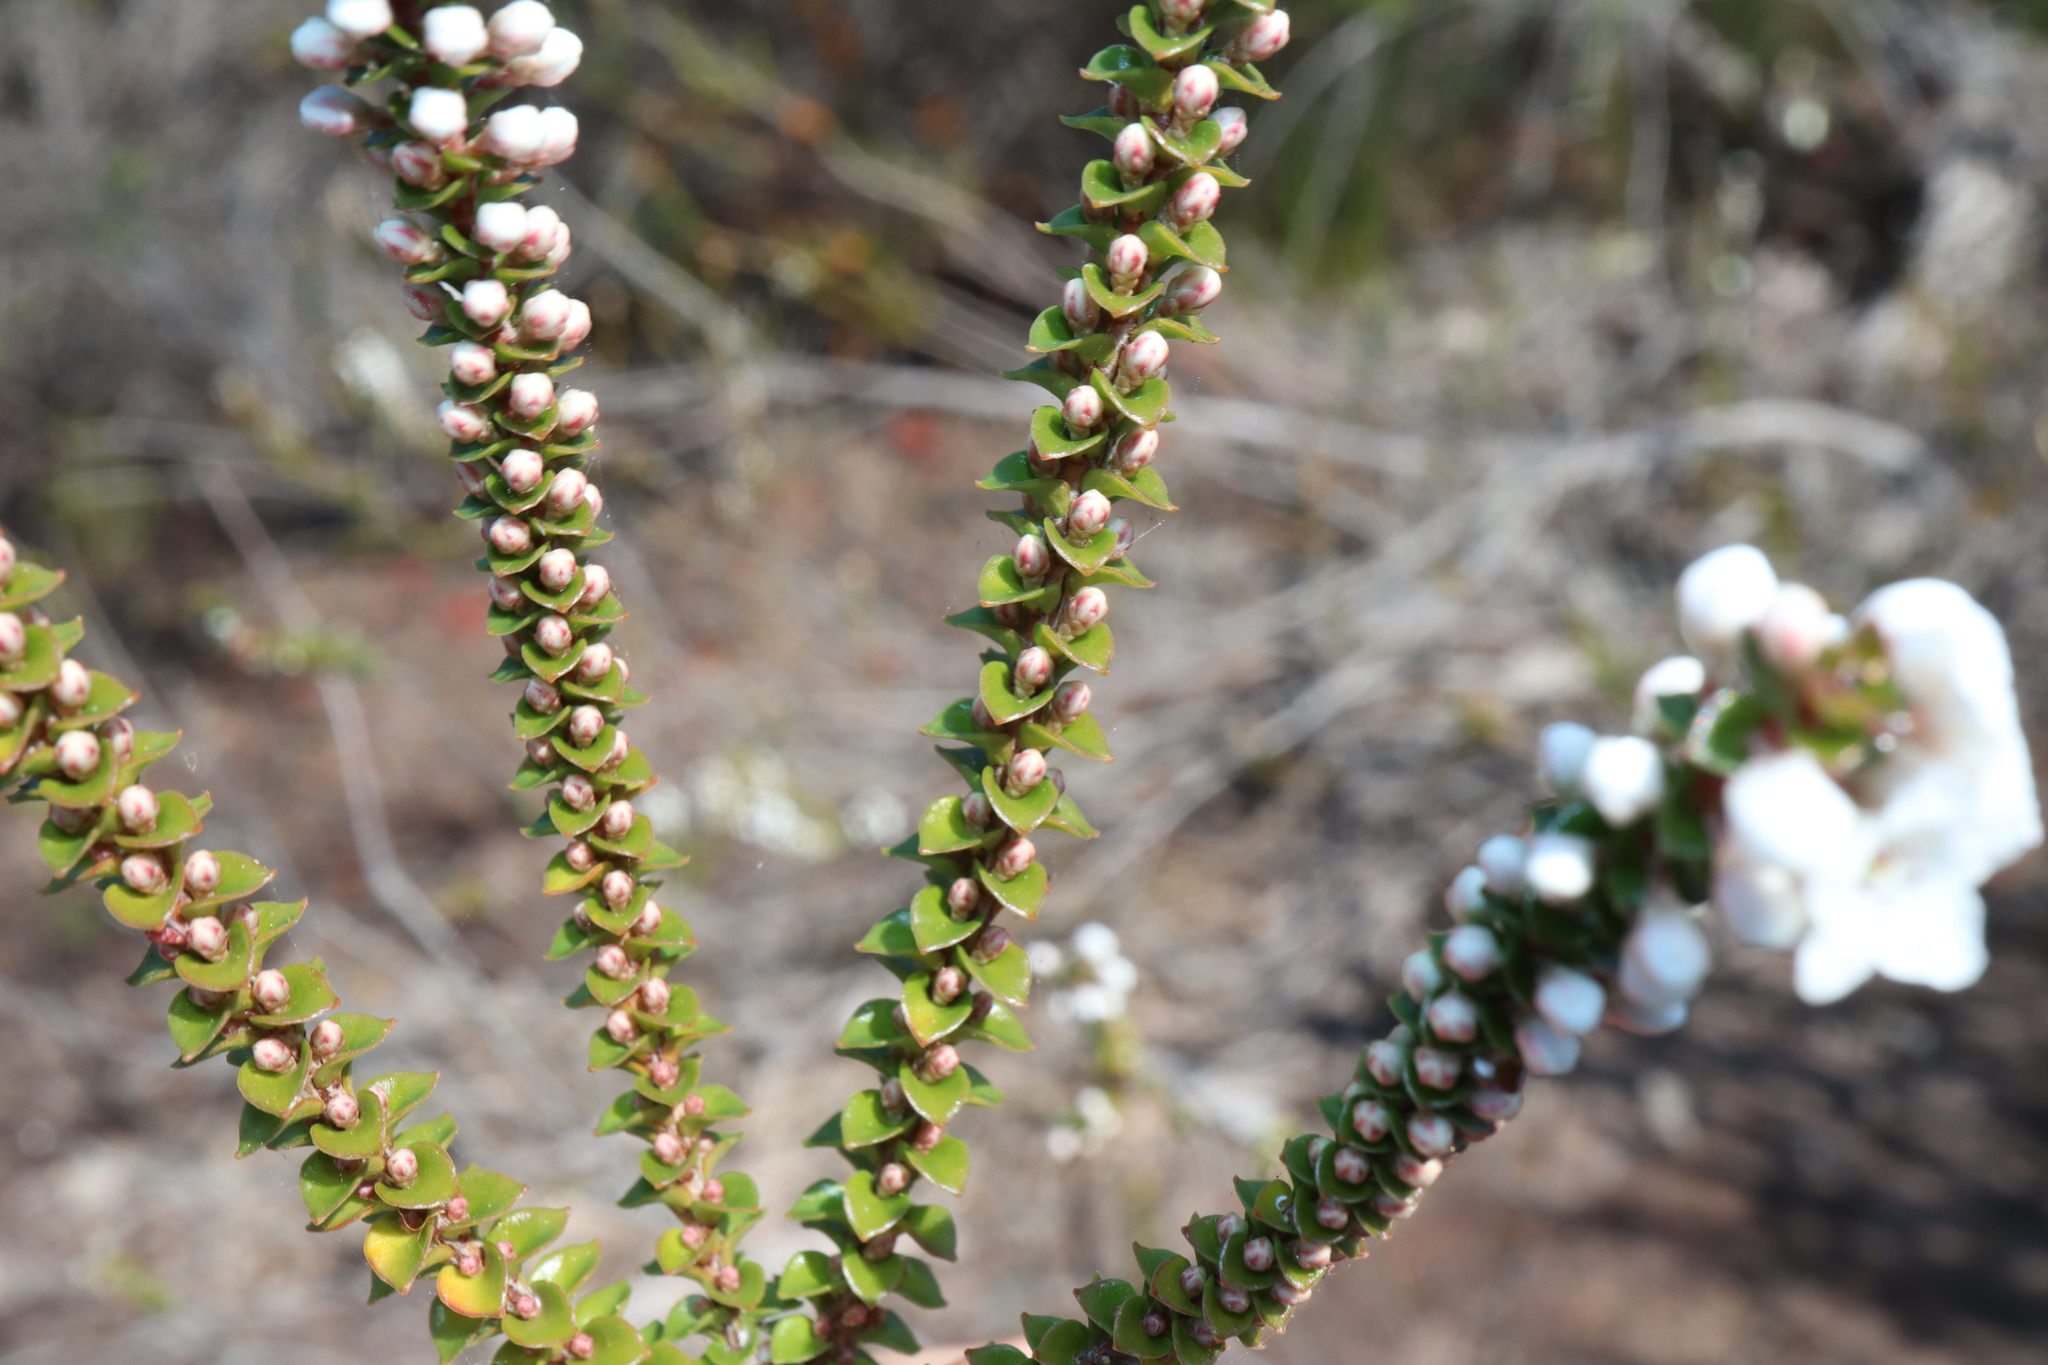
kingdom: Plantae
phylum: Tracheophyta
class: Magnoliopsida
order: Ericales
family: Ericaceae
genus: Epacris
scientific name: Epacris microphylla
